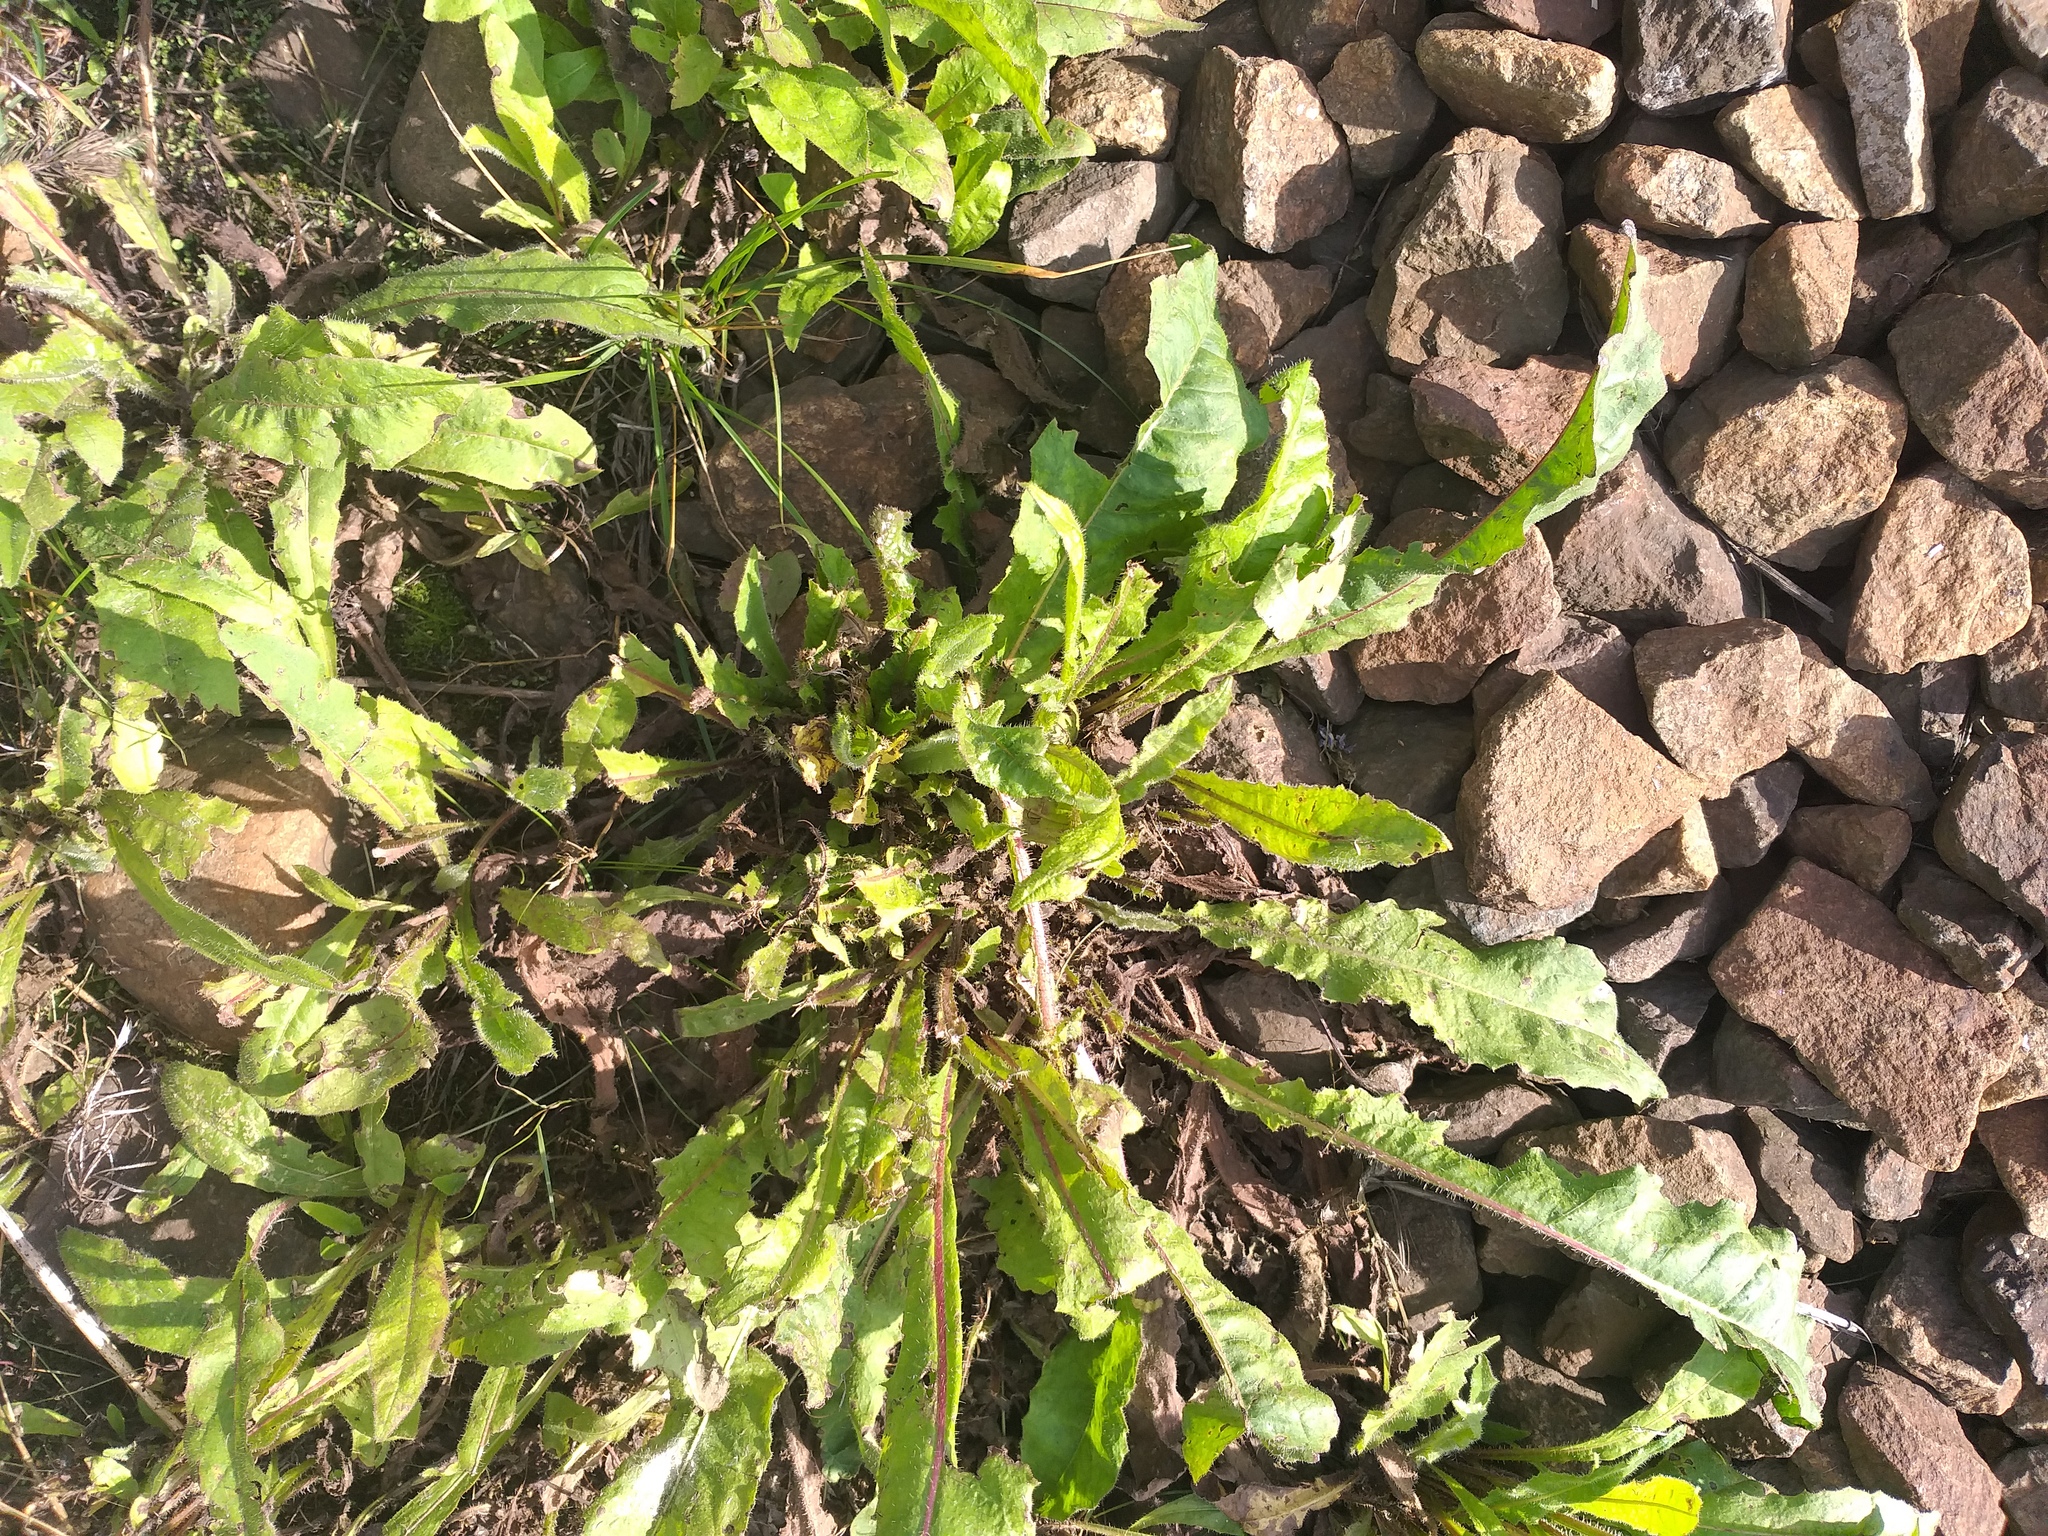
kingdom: Plantae
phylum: Tracheophyta
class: Magnoliopsida
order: Asterales
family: Asteraceae
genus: Picris
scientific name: Picris hieracioides
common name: Hawkweed oxtongue
